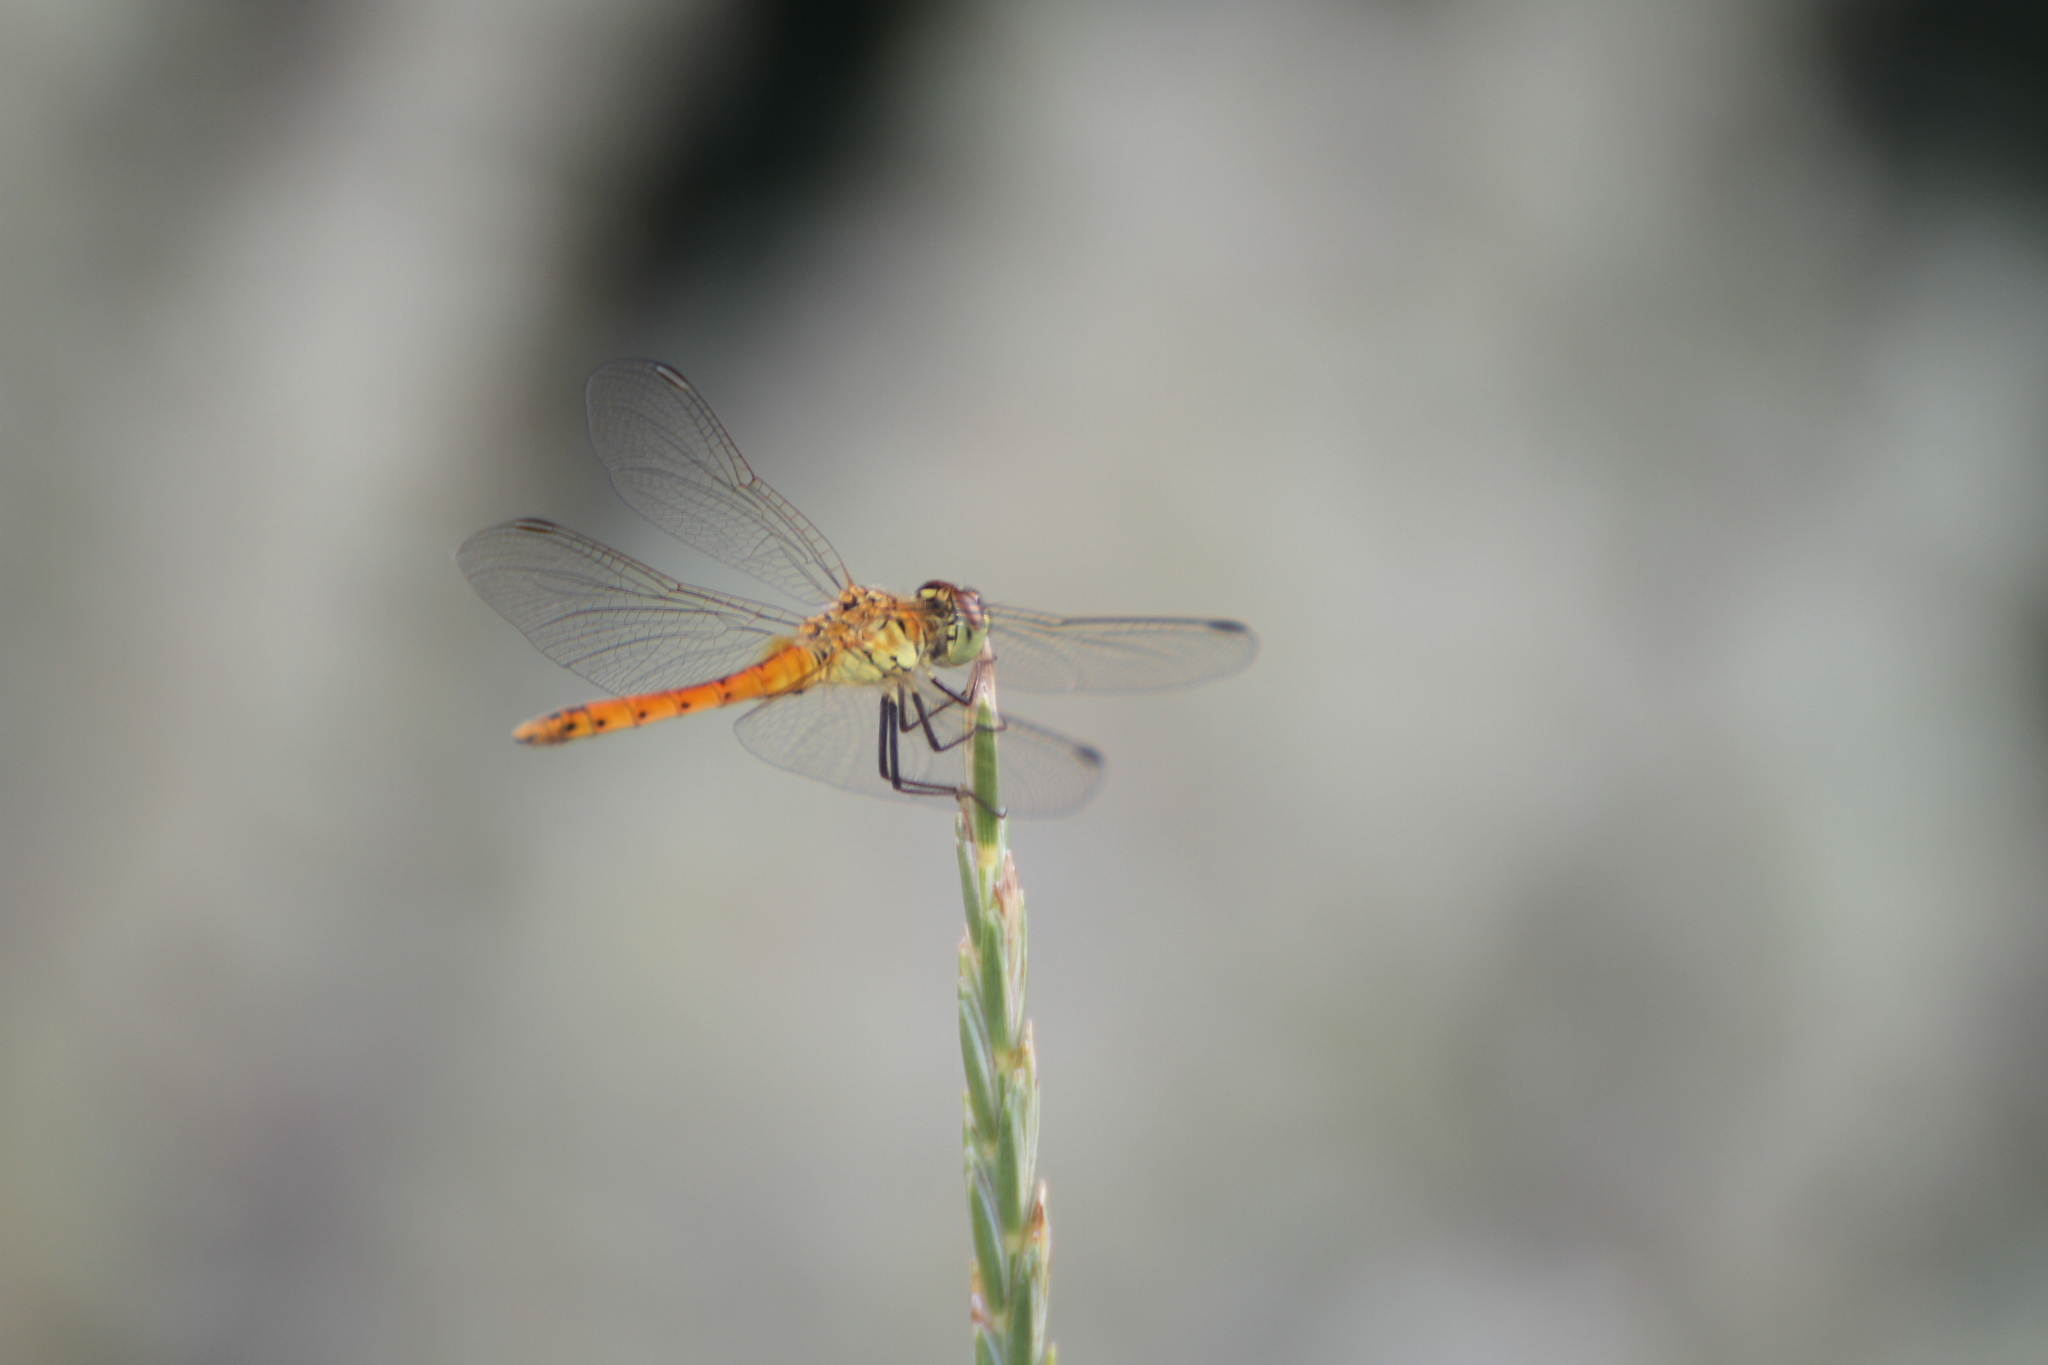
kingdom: Animalia
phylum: Arthropoda
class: Insecta
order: Odonata
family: Libellulidae
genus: Sympetrum
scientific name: Sympetrum depressiusculum
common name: Spotted darter
